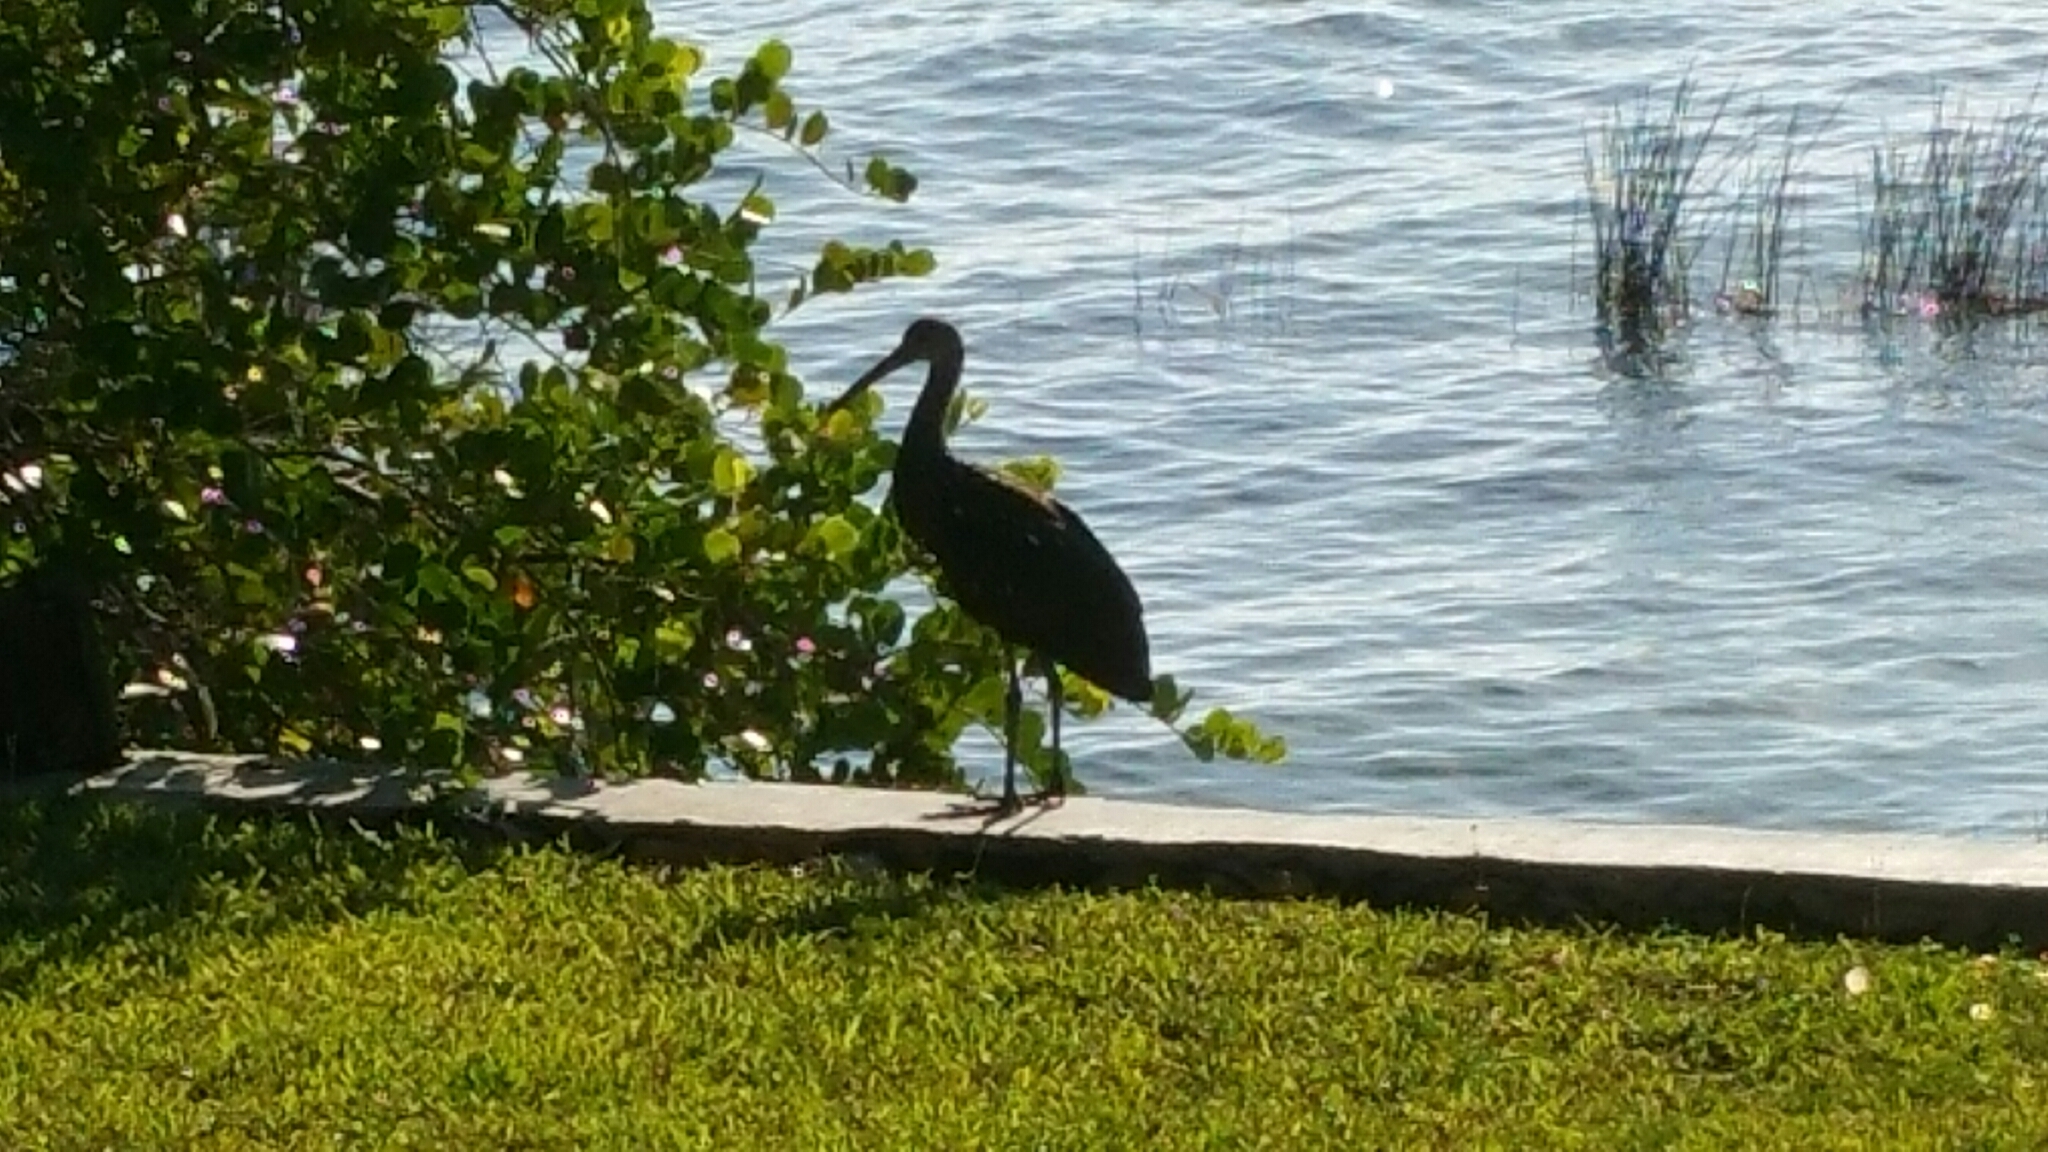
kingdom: Animalia
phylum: Chordata
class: Aves
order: Gruiformes
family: Aramidae
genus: Aramus
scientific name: Aramus guarauna
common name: Limpkin
